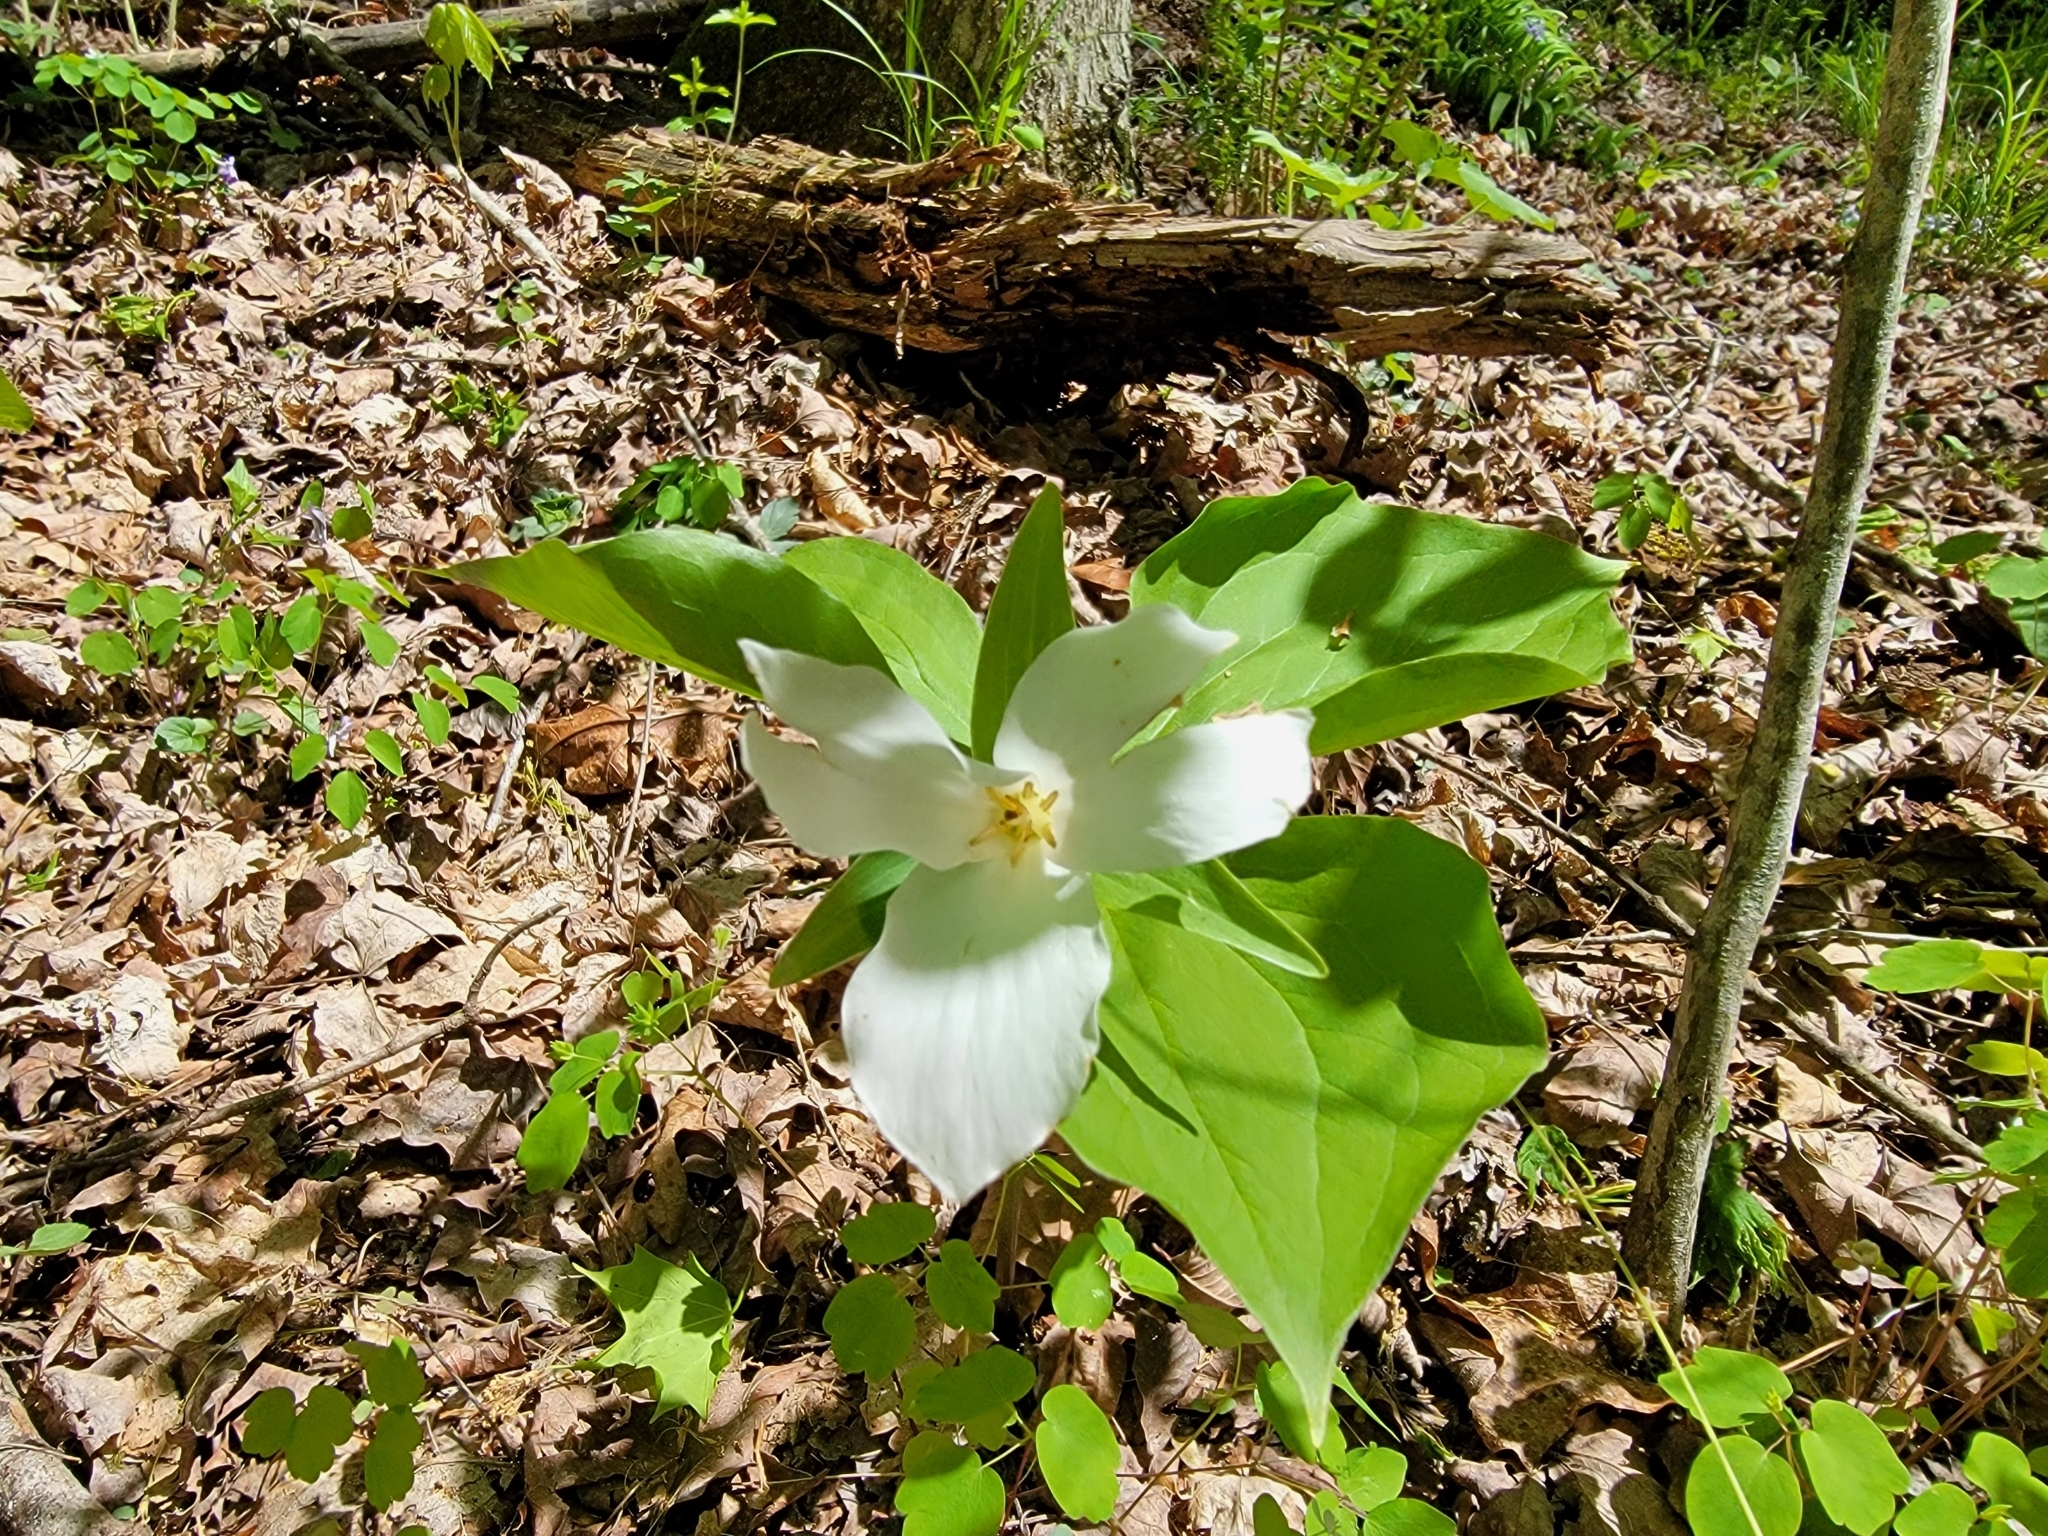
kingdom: Plantae
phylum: Tracheophyta
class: Liliopsida
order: Liliales
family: Melanthiaceae
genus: Trillium
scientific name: Trillium grandiflorum
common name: Great white trillium
